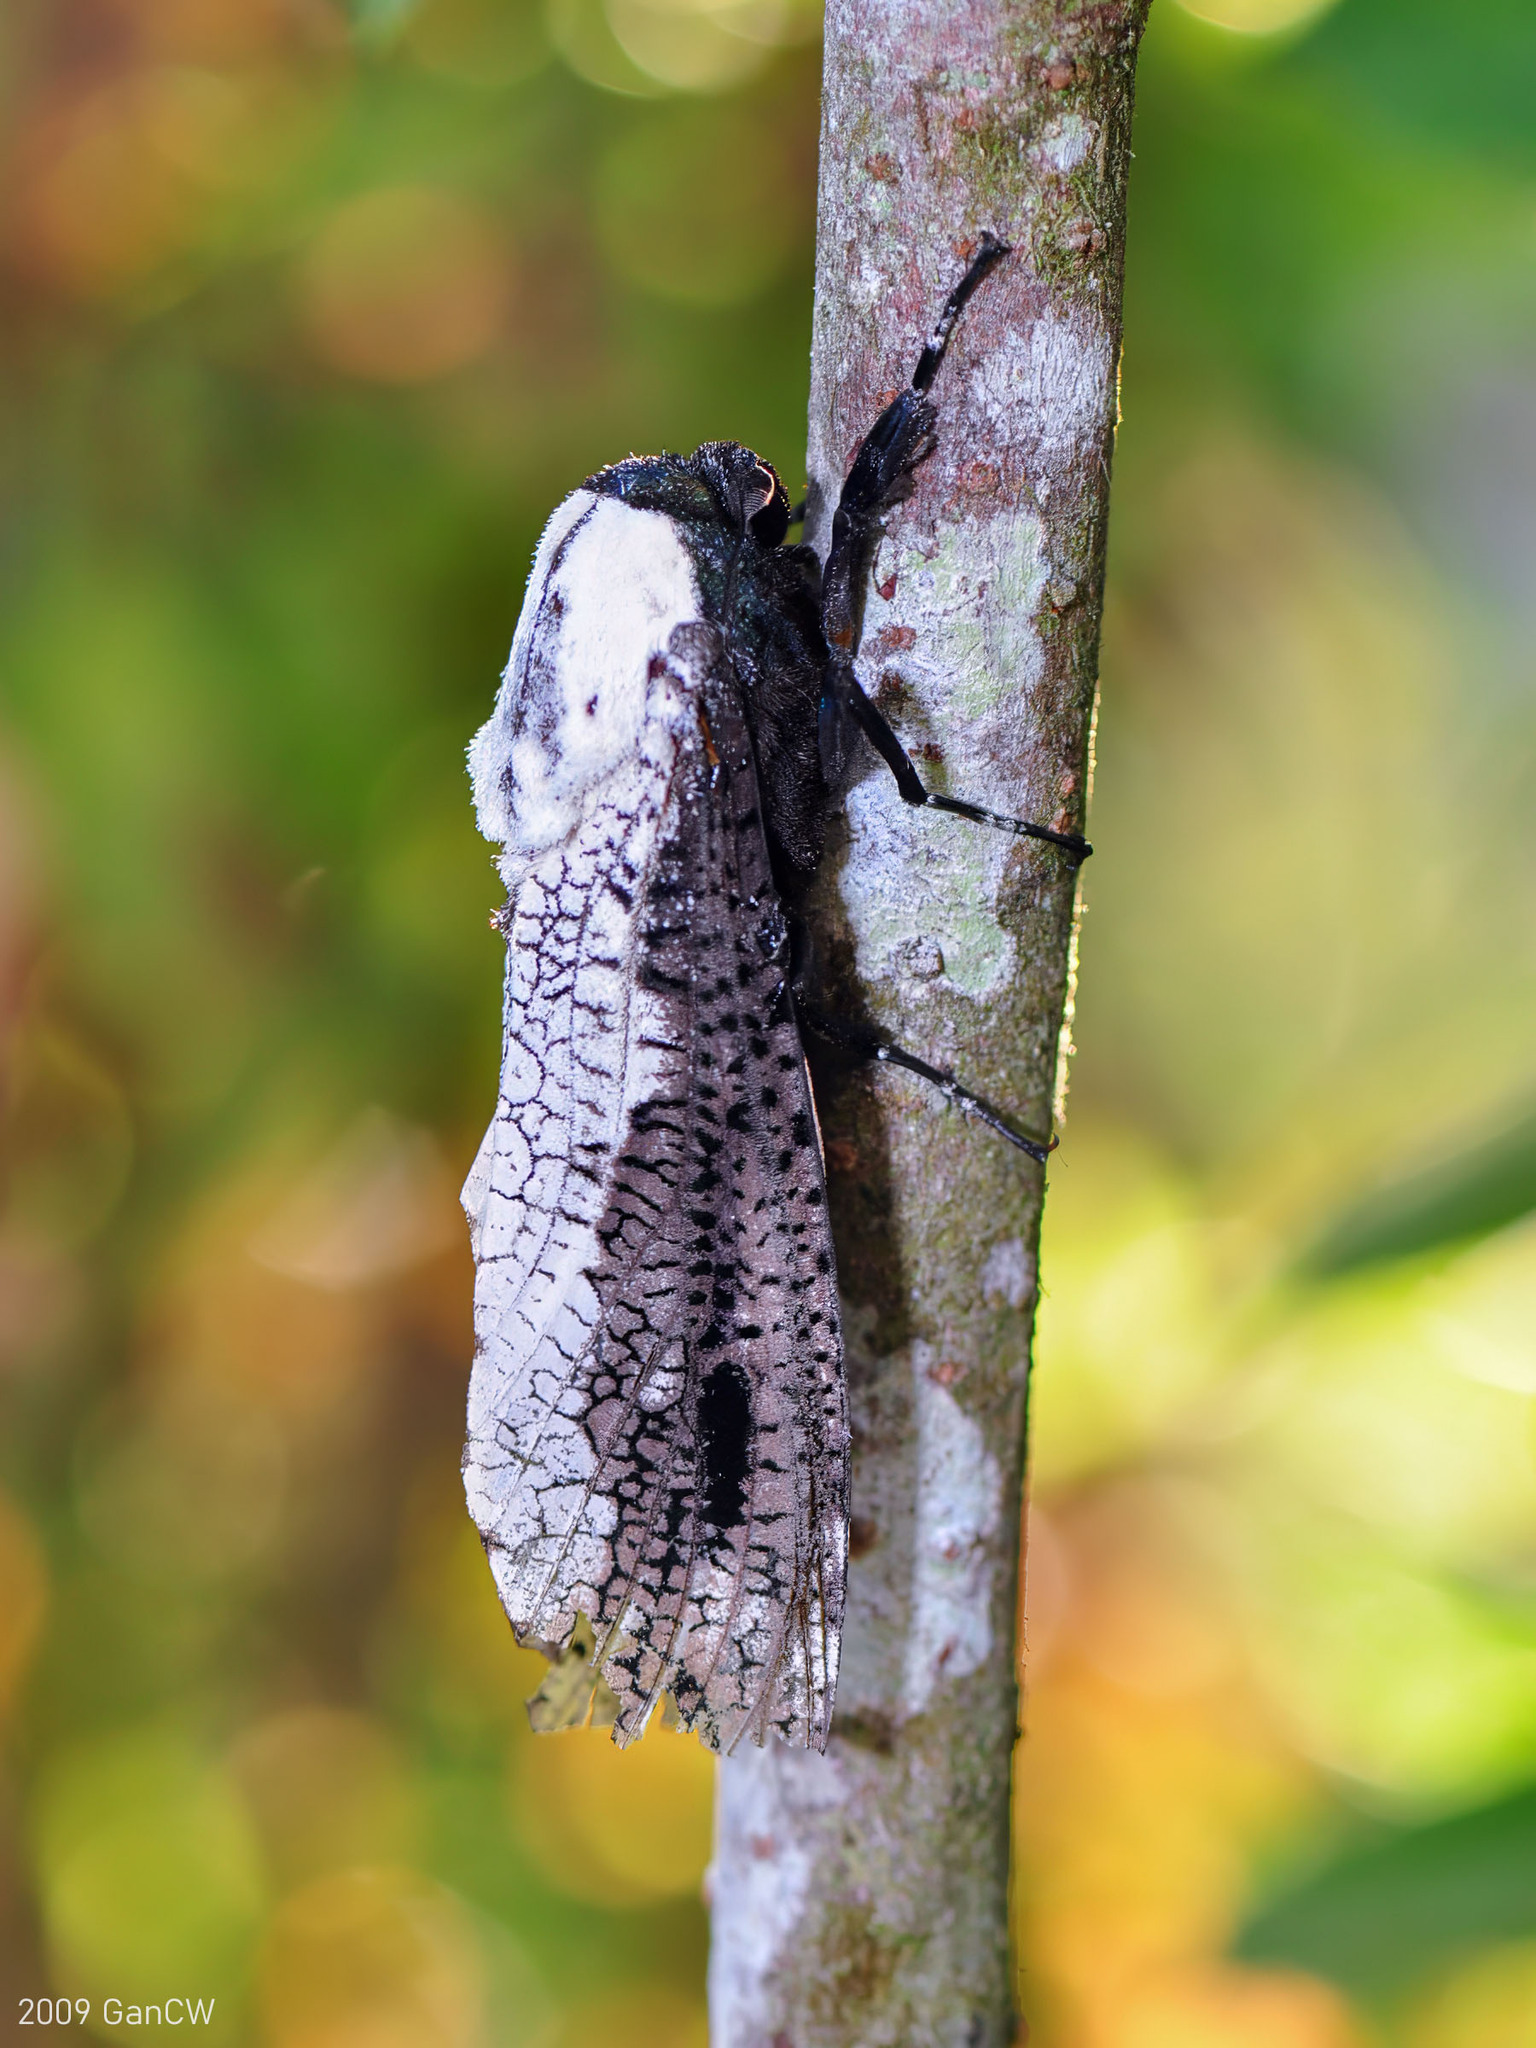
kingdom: Animalia
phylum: Arthropoda
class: Insecta
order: Lepidoptera
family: Cossidae
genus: Xyleutes
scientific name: Xyleutes persona
